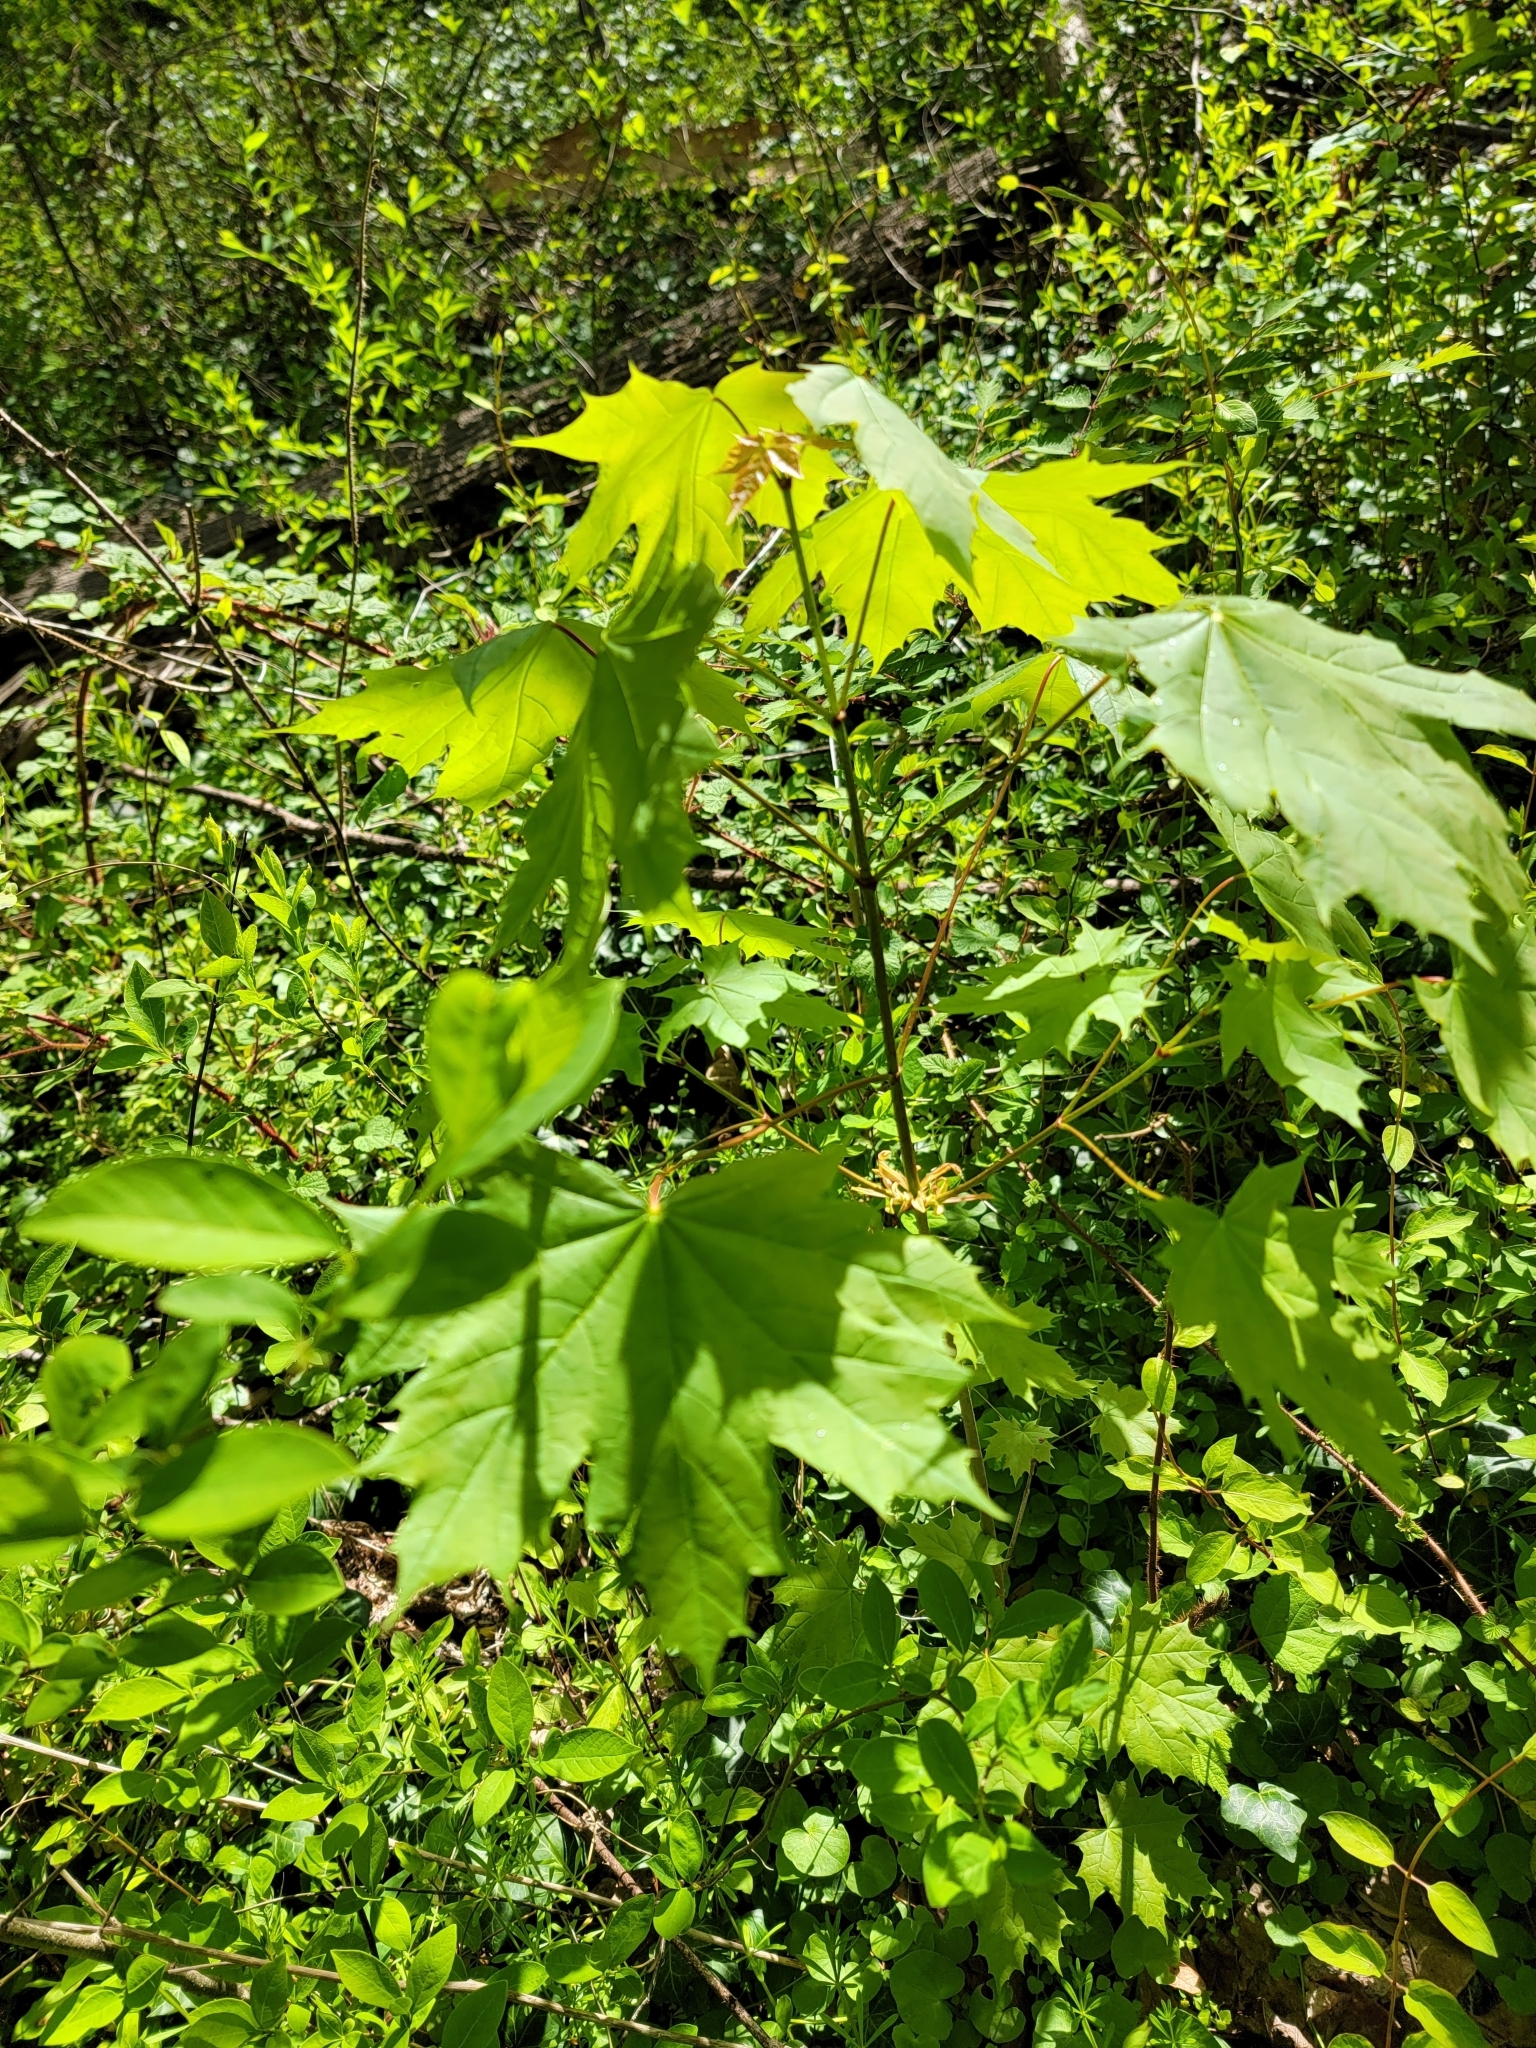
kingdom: Plantae
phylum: Tracheophyta
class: Magnoliopsida
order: Sapindales
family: Sapindaceae
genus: Acer
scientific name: Acer platanoides
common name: Norway maple
